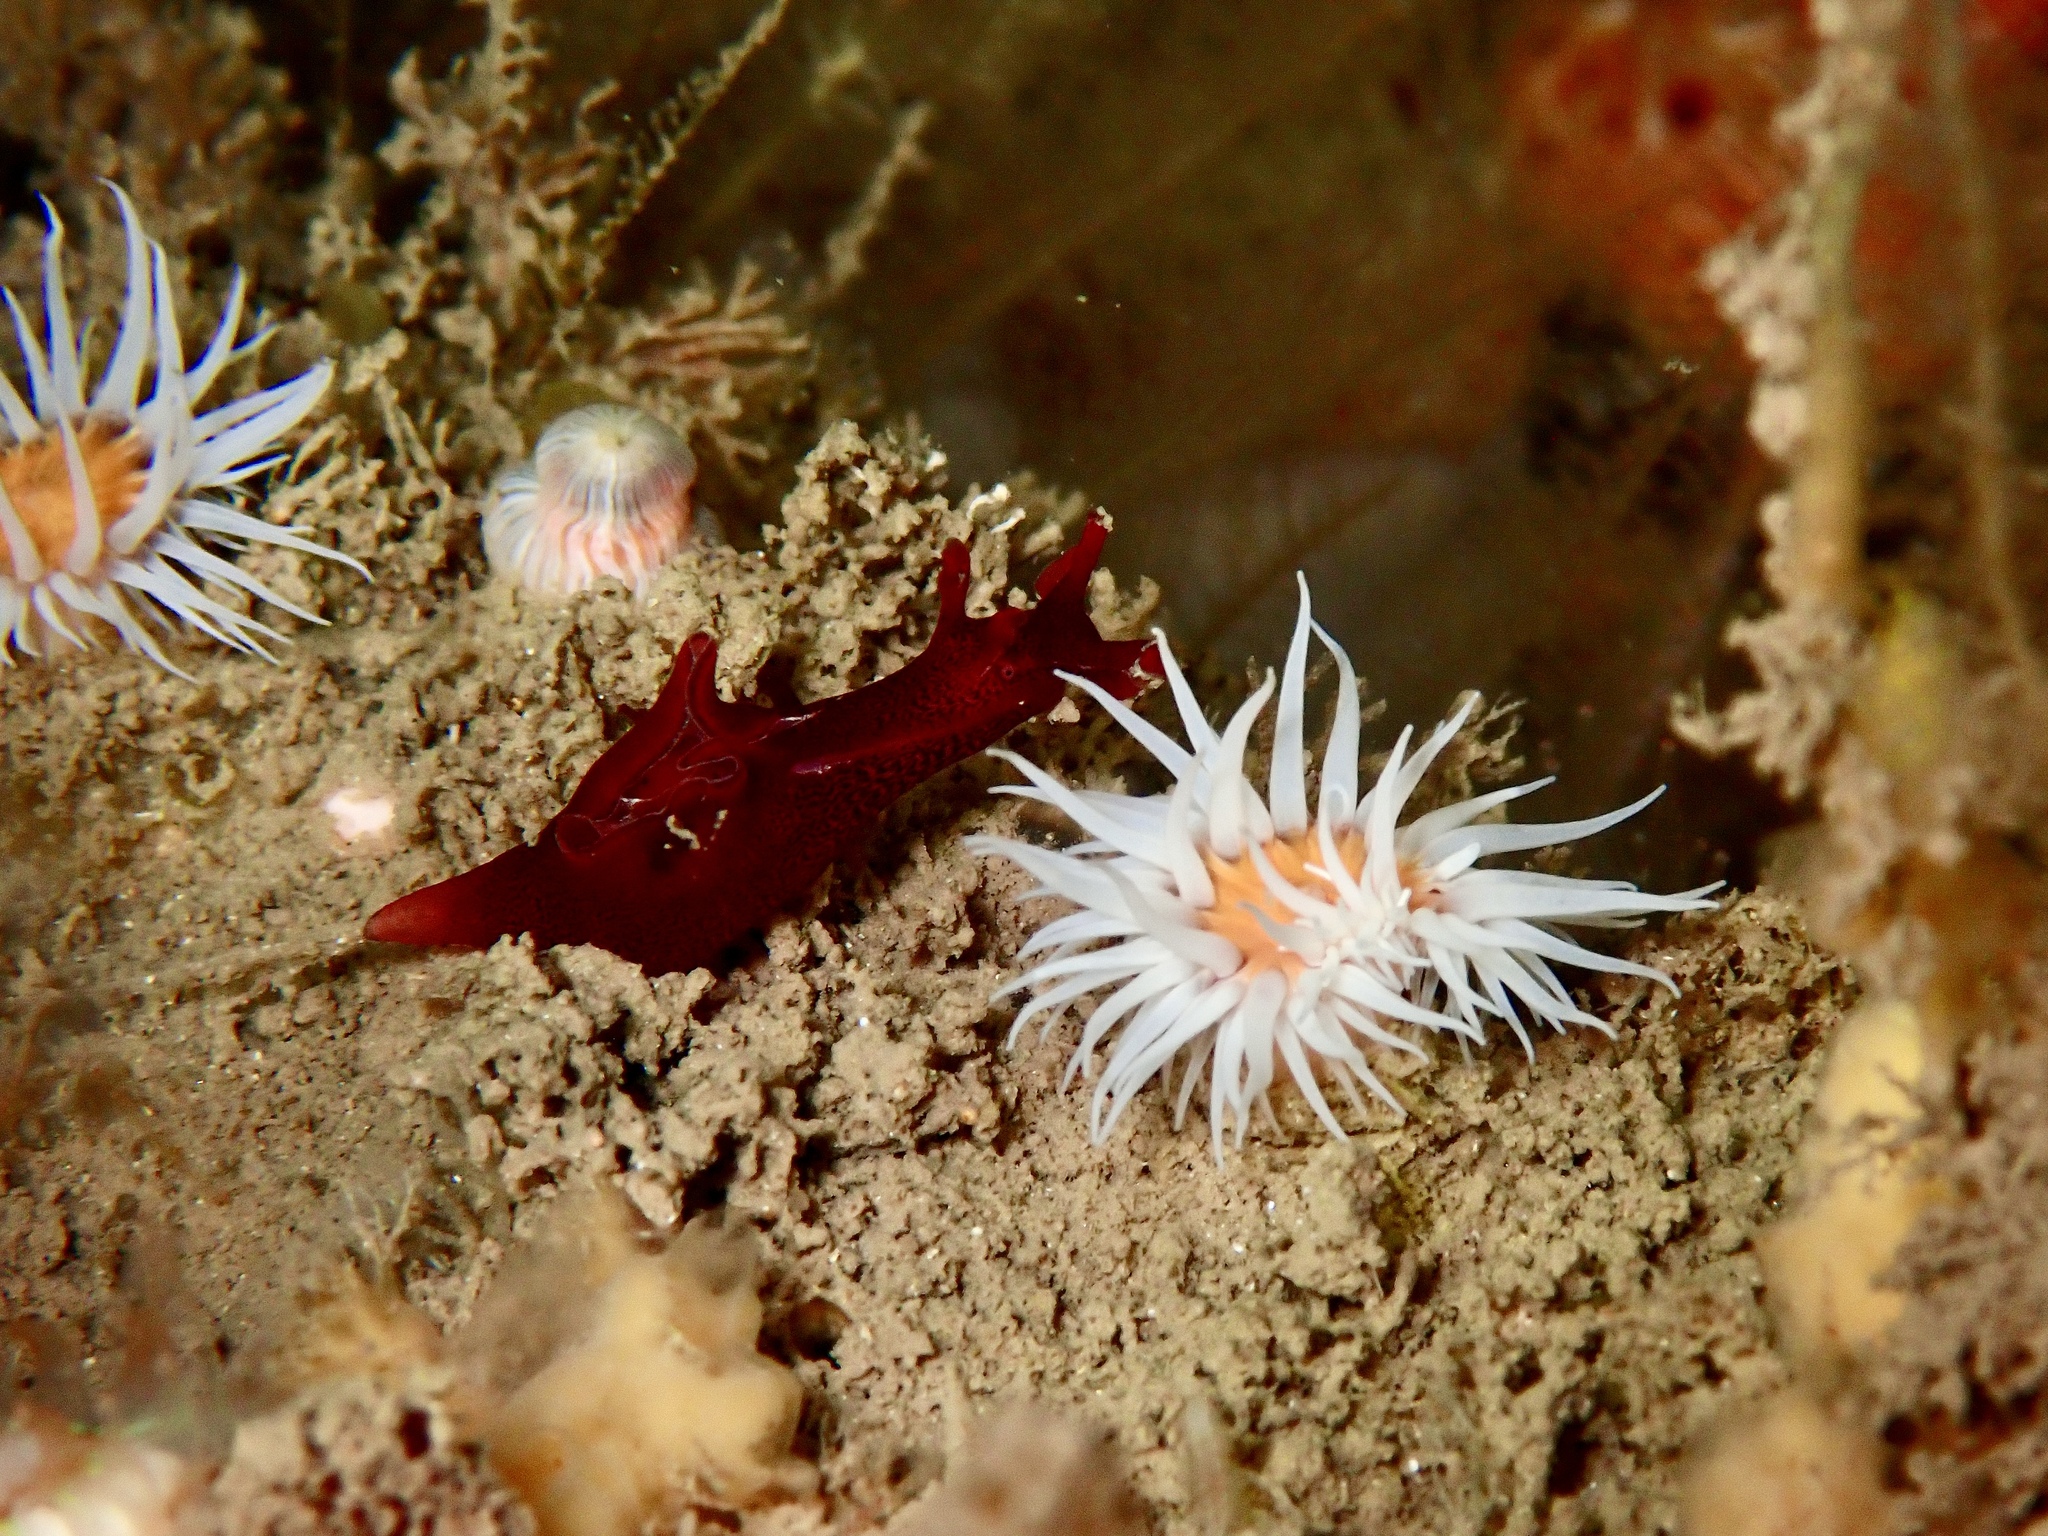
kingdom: Animalia
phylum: Mollusca
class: Gastropoda
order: Aplysiida
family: Aplysiidae
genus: Aplysia
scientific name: Aplysia punctata
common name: Common sea hare
